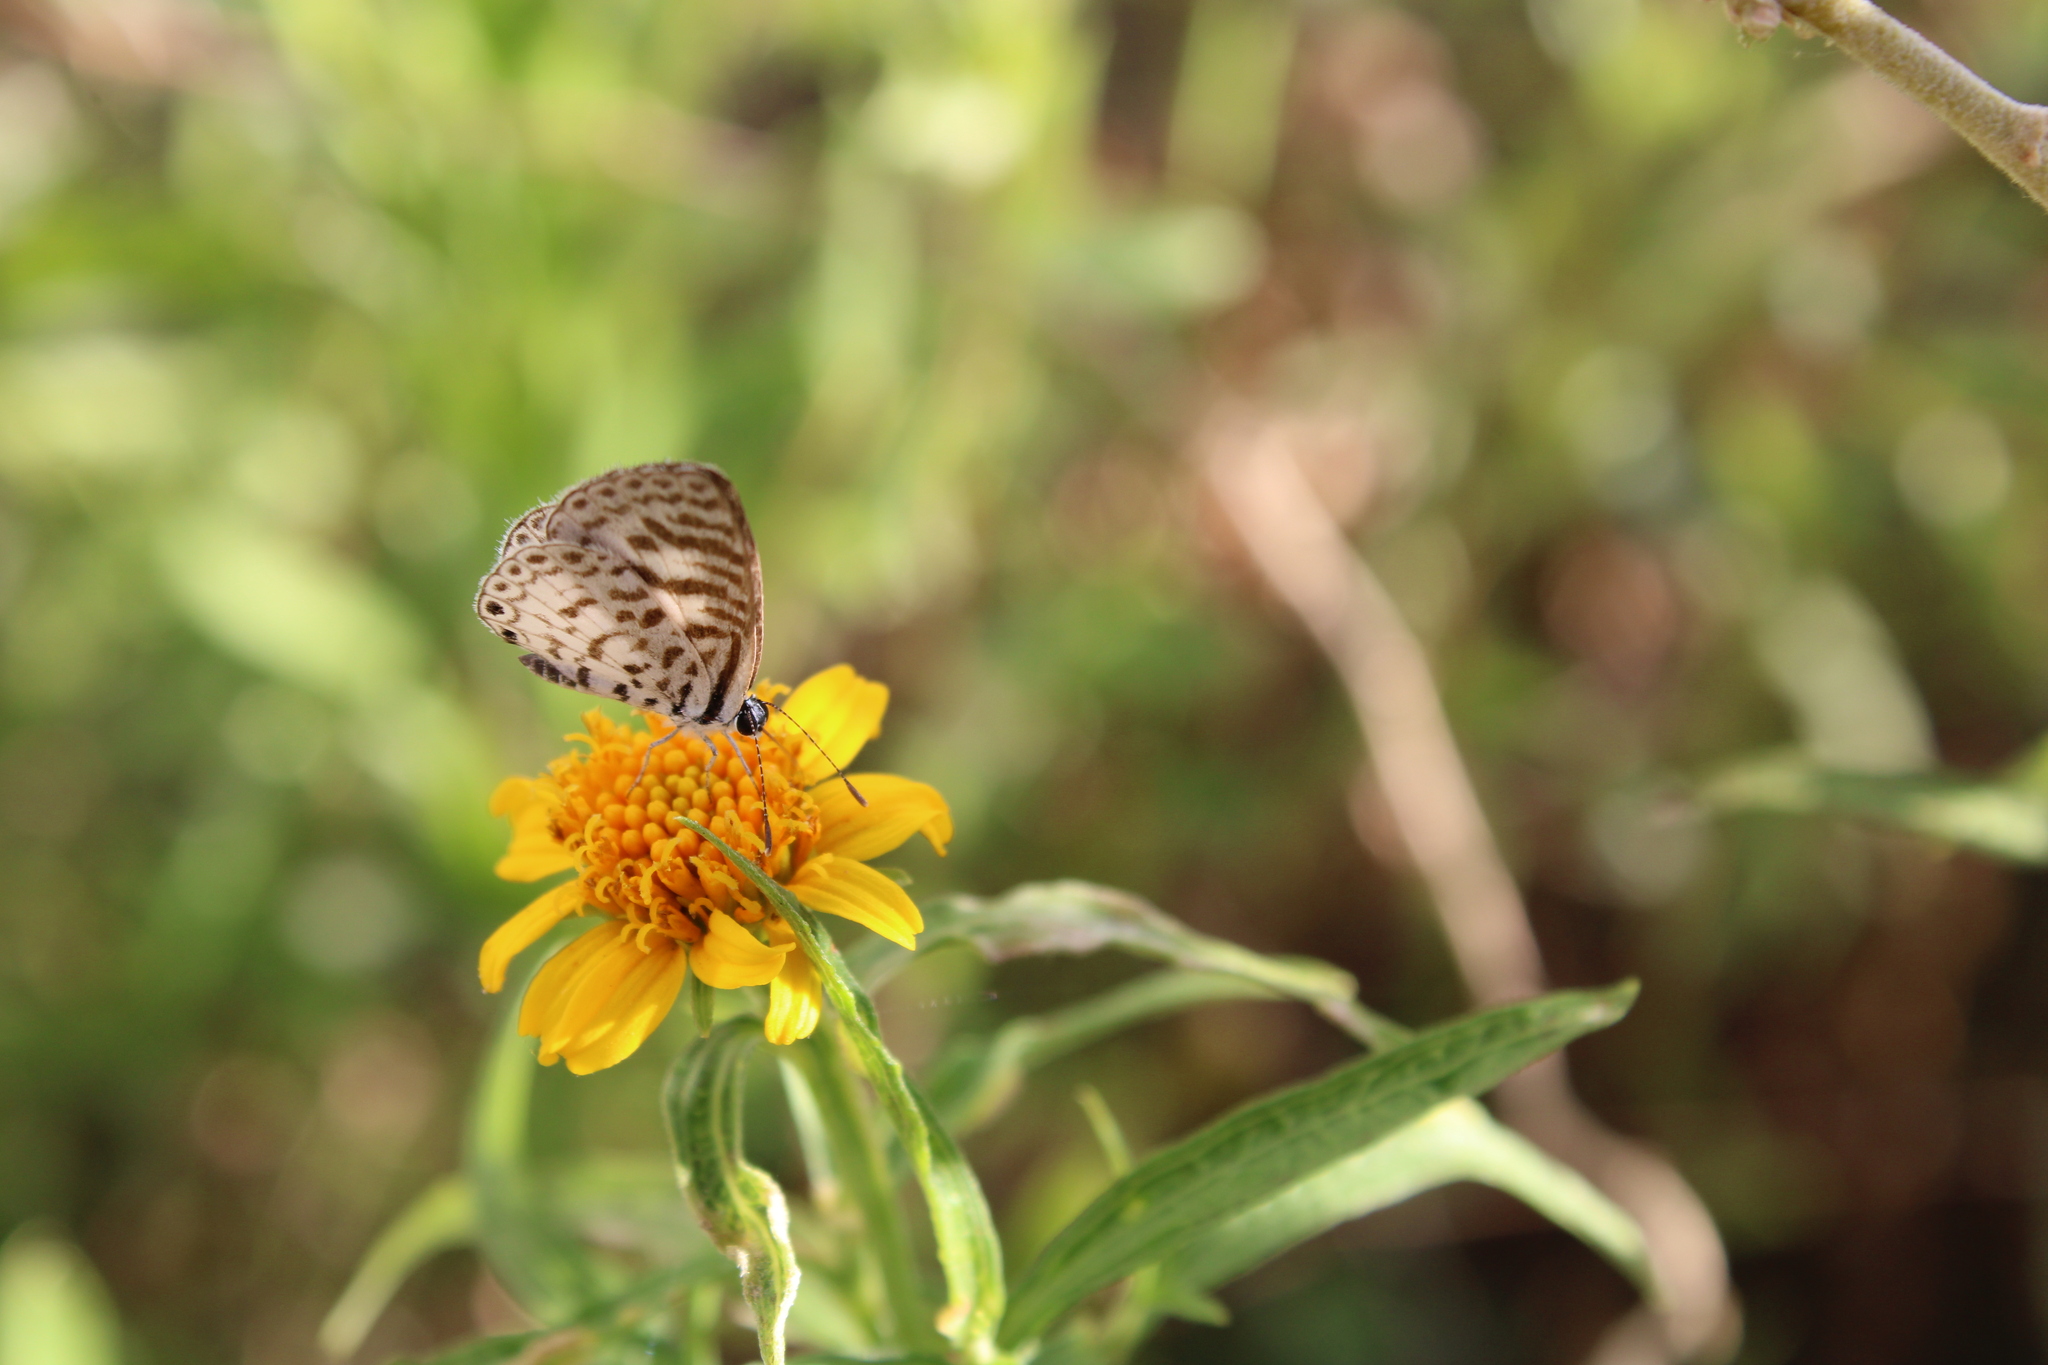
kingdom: Animalia
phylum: Arthropoda
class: Insecta
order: Lepidoptera
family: Lycaenidae
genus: Leptotes
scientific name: Leptotes cassius
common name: Cassius blue
